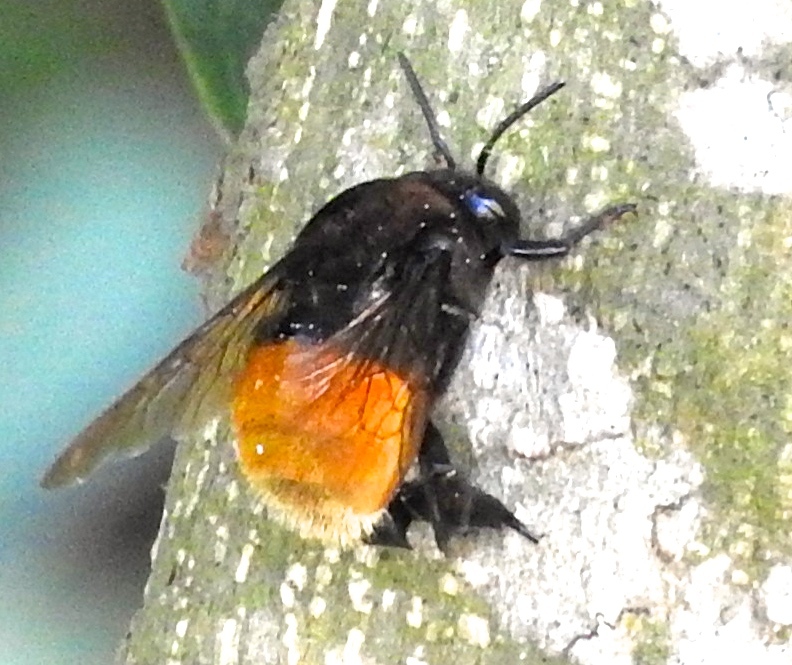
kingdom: Animalia
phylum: Arthropoda
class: Insecta
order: Hymenoptera
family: Apidae
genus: Eulaema
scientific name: Eulaema polychroma
